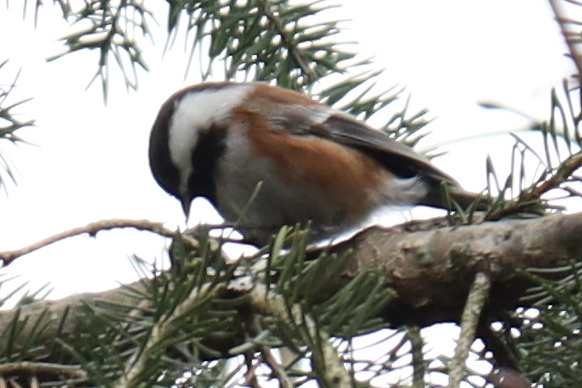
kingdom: Animalia
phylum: Chordata
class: Aves
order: Passeriformes
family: Paridae
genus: Poecile
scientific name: Poecile rufescens
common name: Chestnut-backed chickadee
